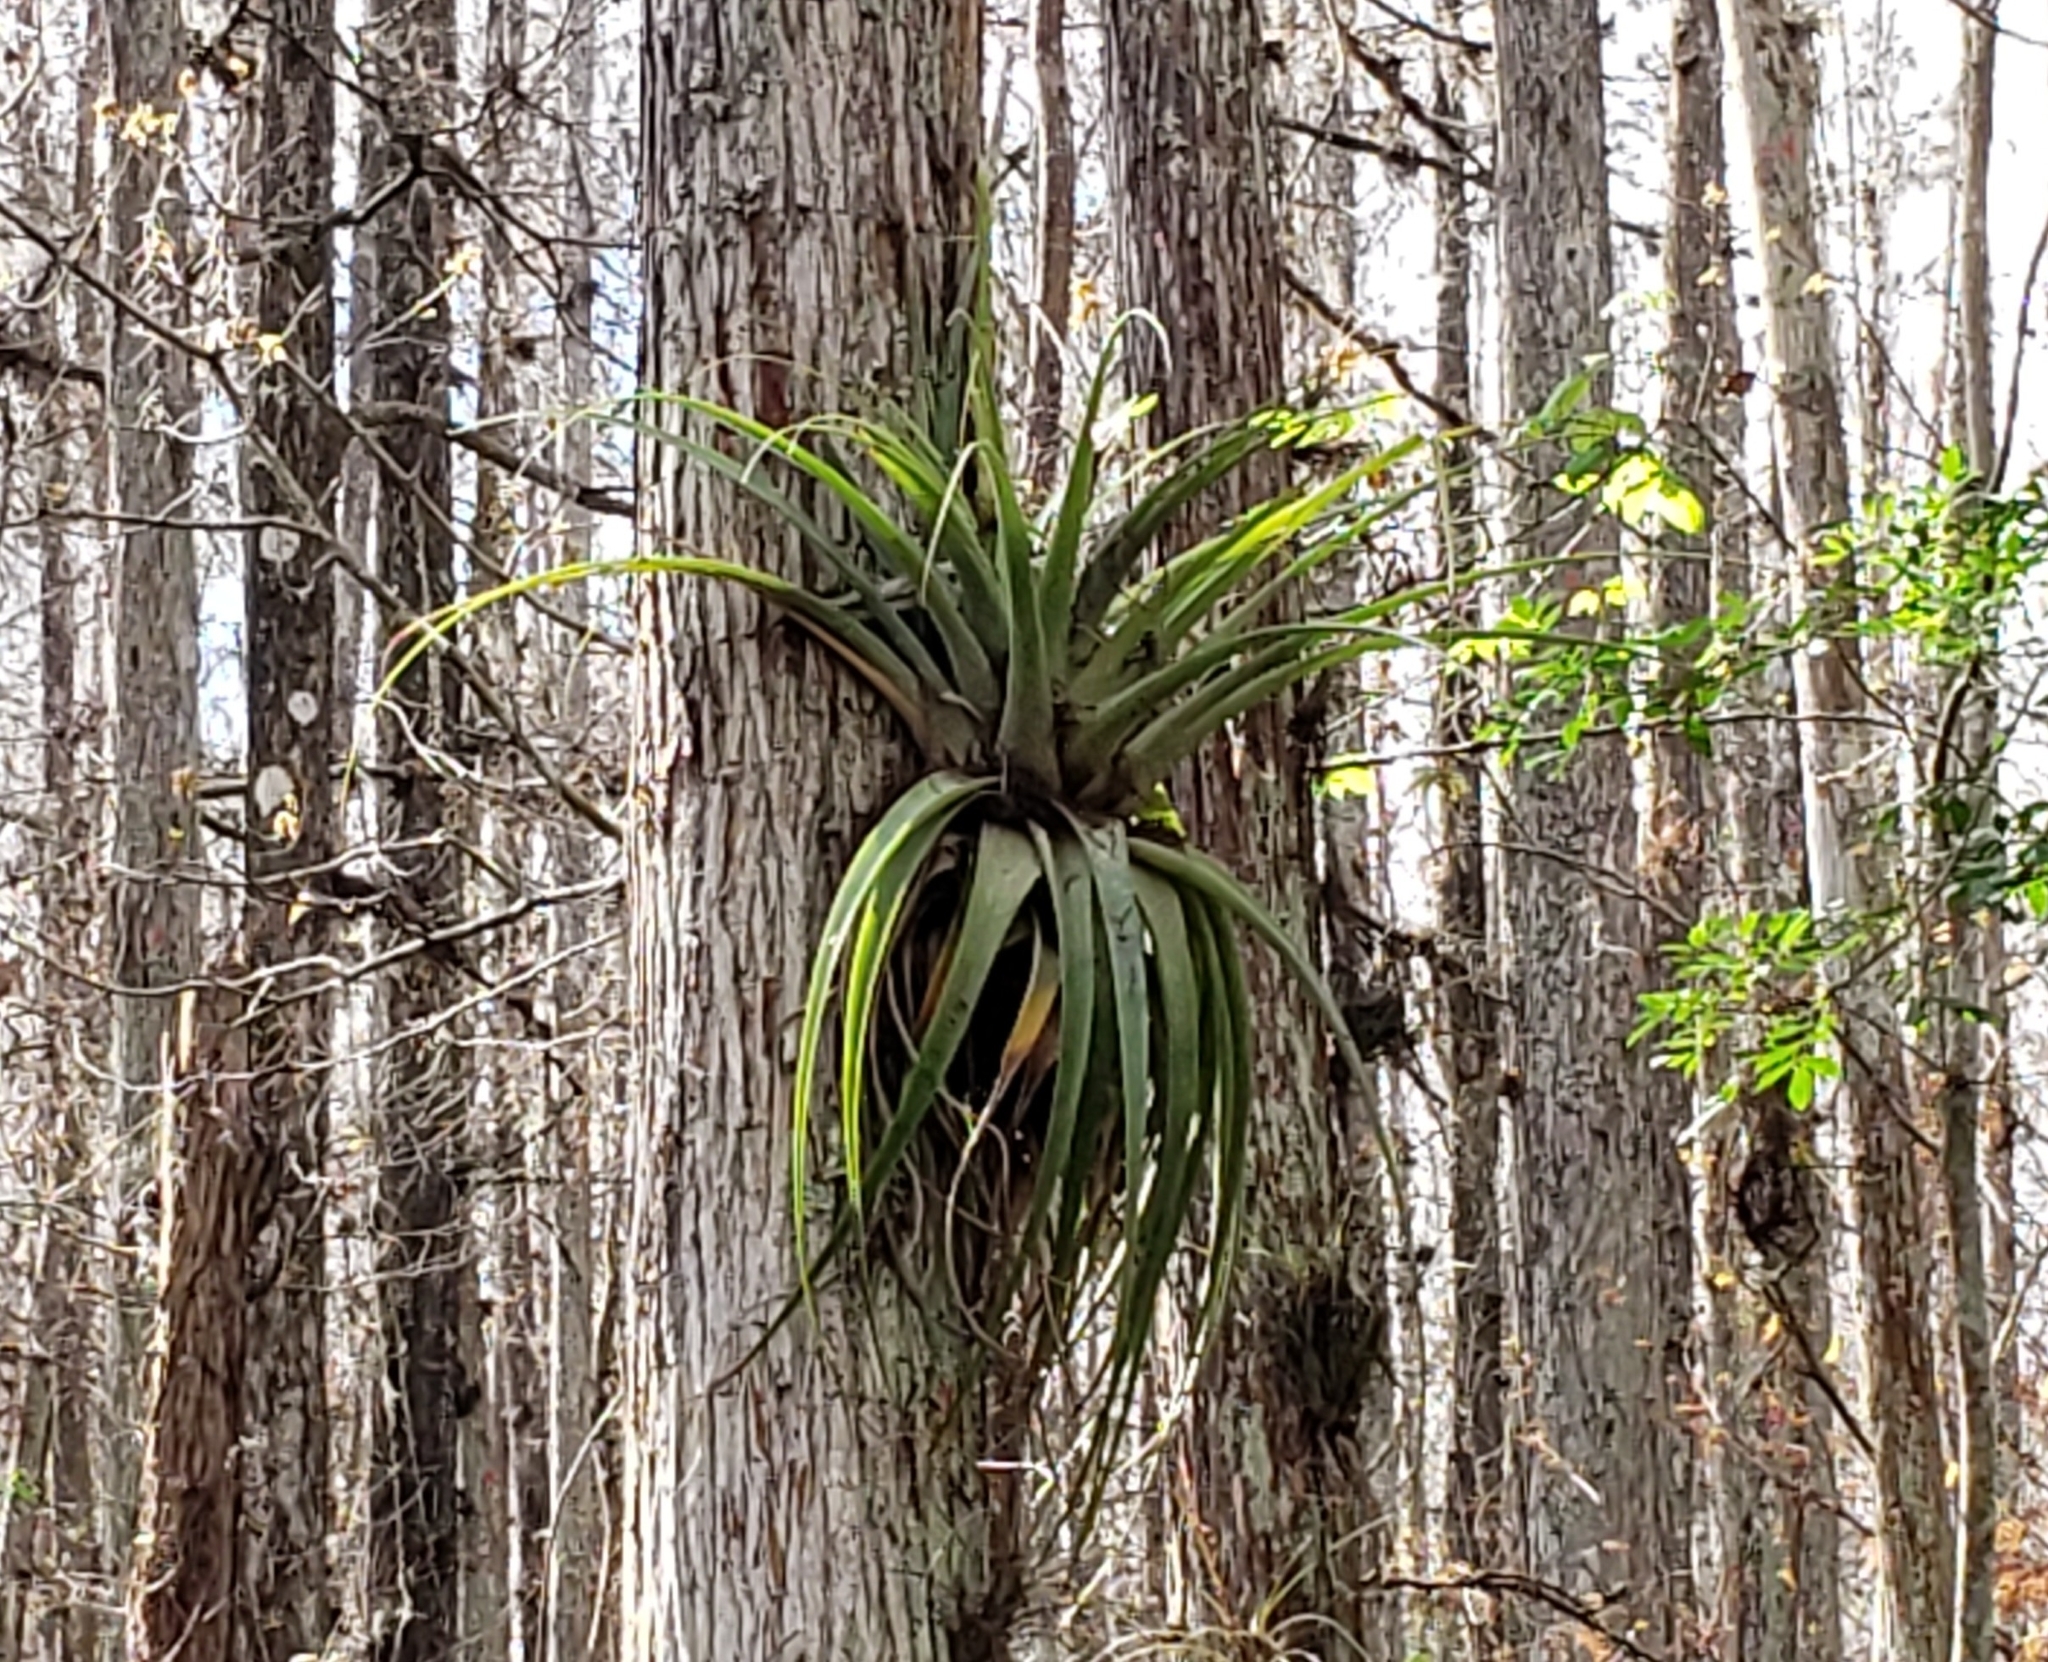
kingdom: Plantae
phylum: Tracheophyta
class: Liliopsida
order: Poales
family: Bromeliaceae
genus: Tillandsia
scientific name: Tillandsia utriculata
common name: Wild pine
